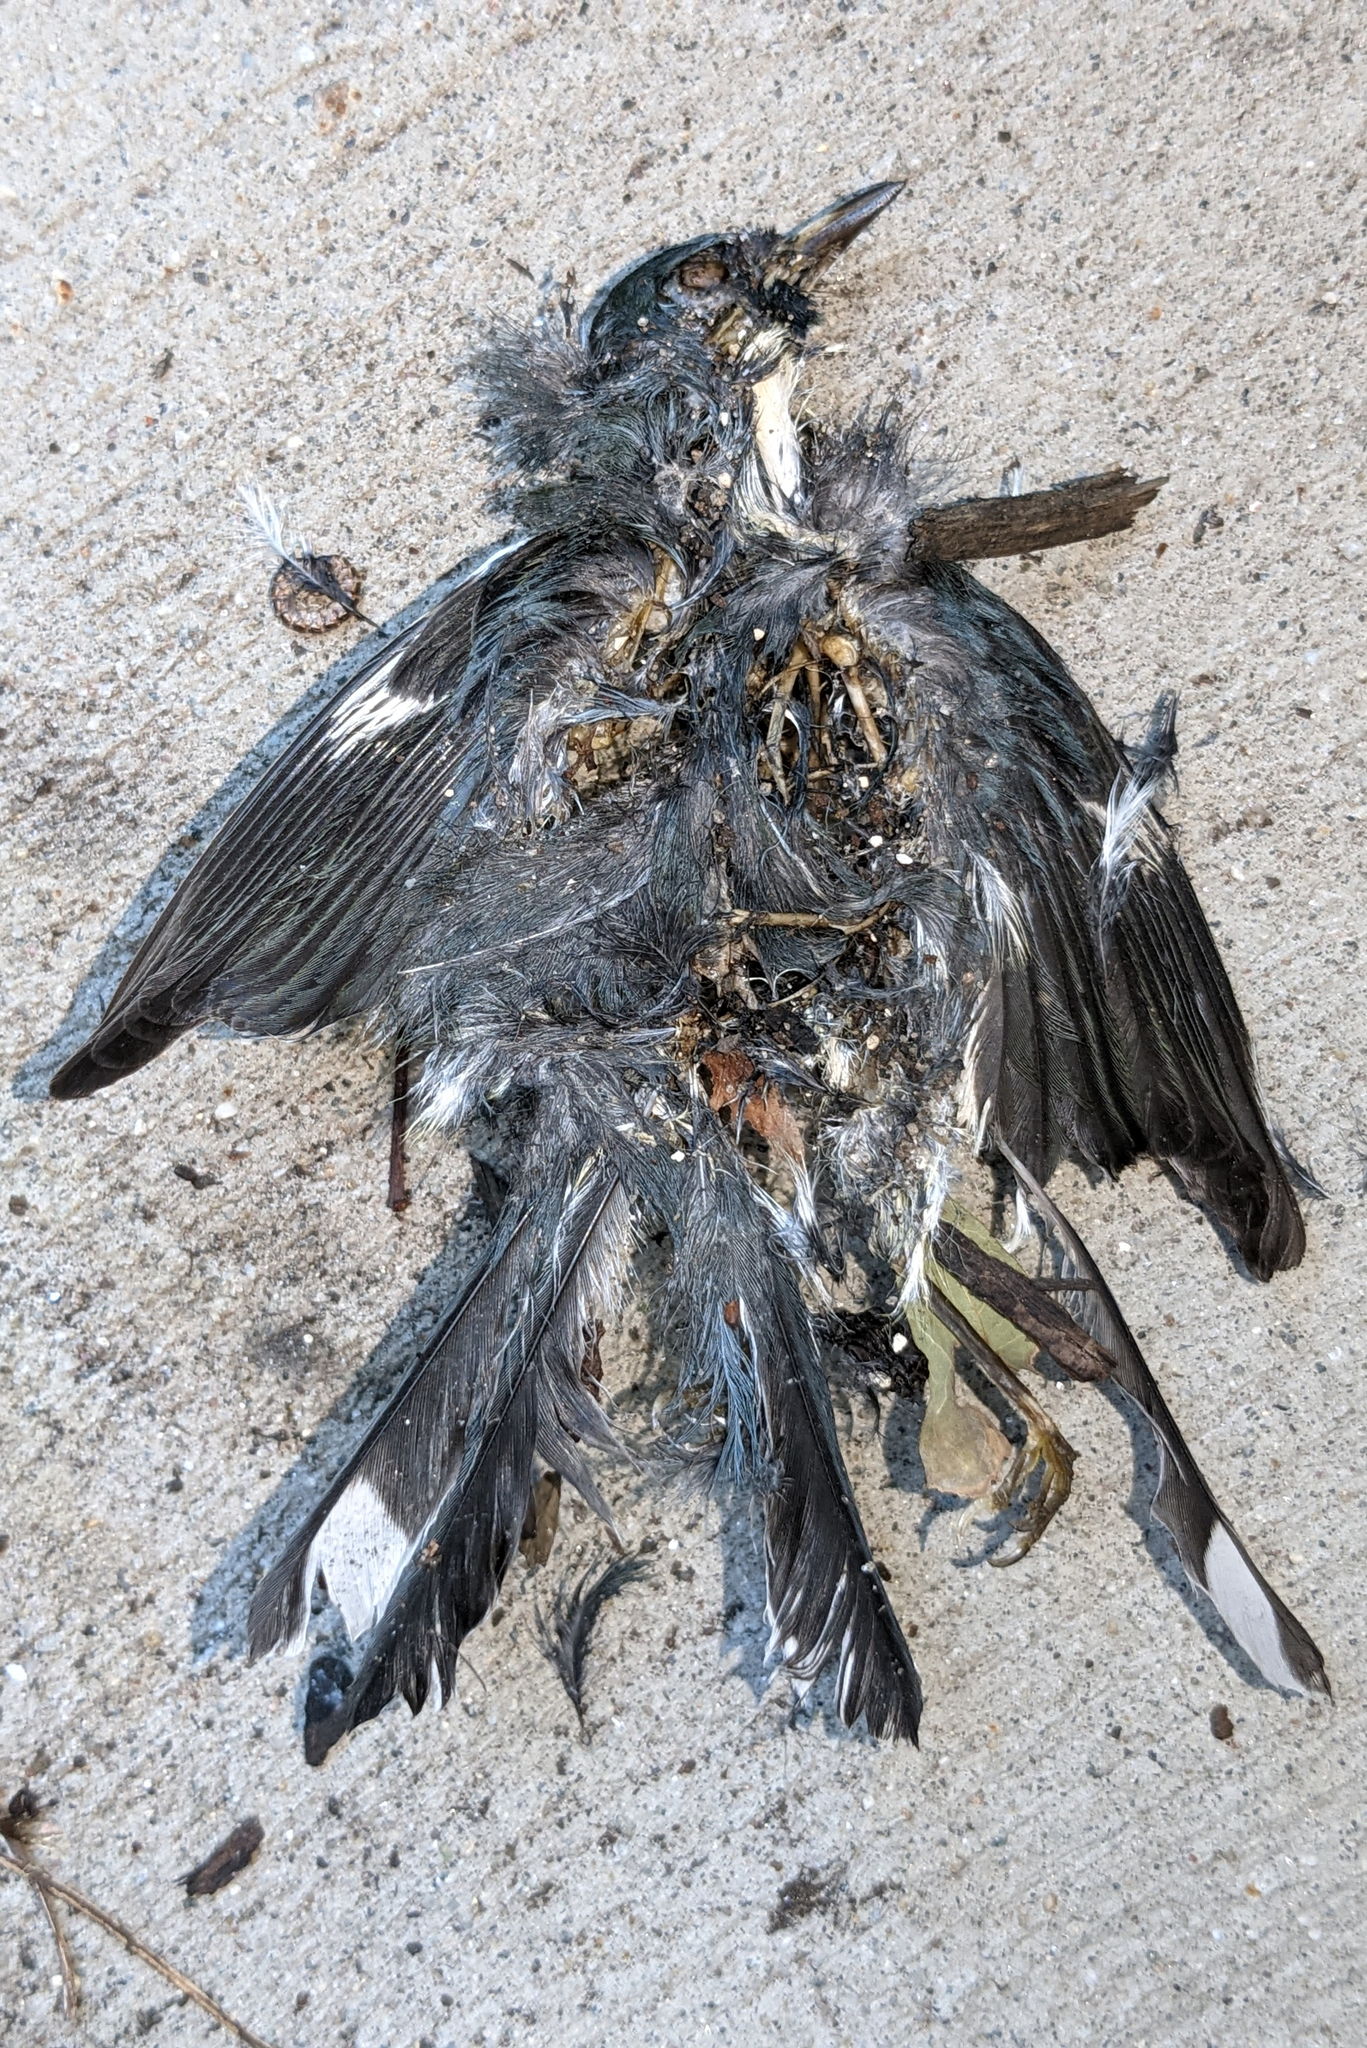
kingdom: Animalia
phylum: Chordata
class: Aves
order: Passeriformes
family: Parulidae
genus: Setophaga
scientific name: Setophaga caerulescens
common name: Black-throated blue warbler
